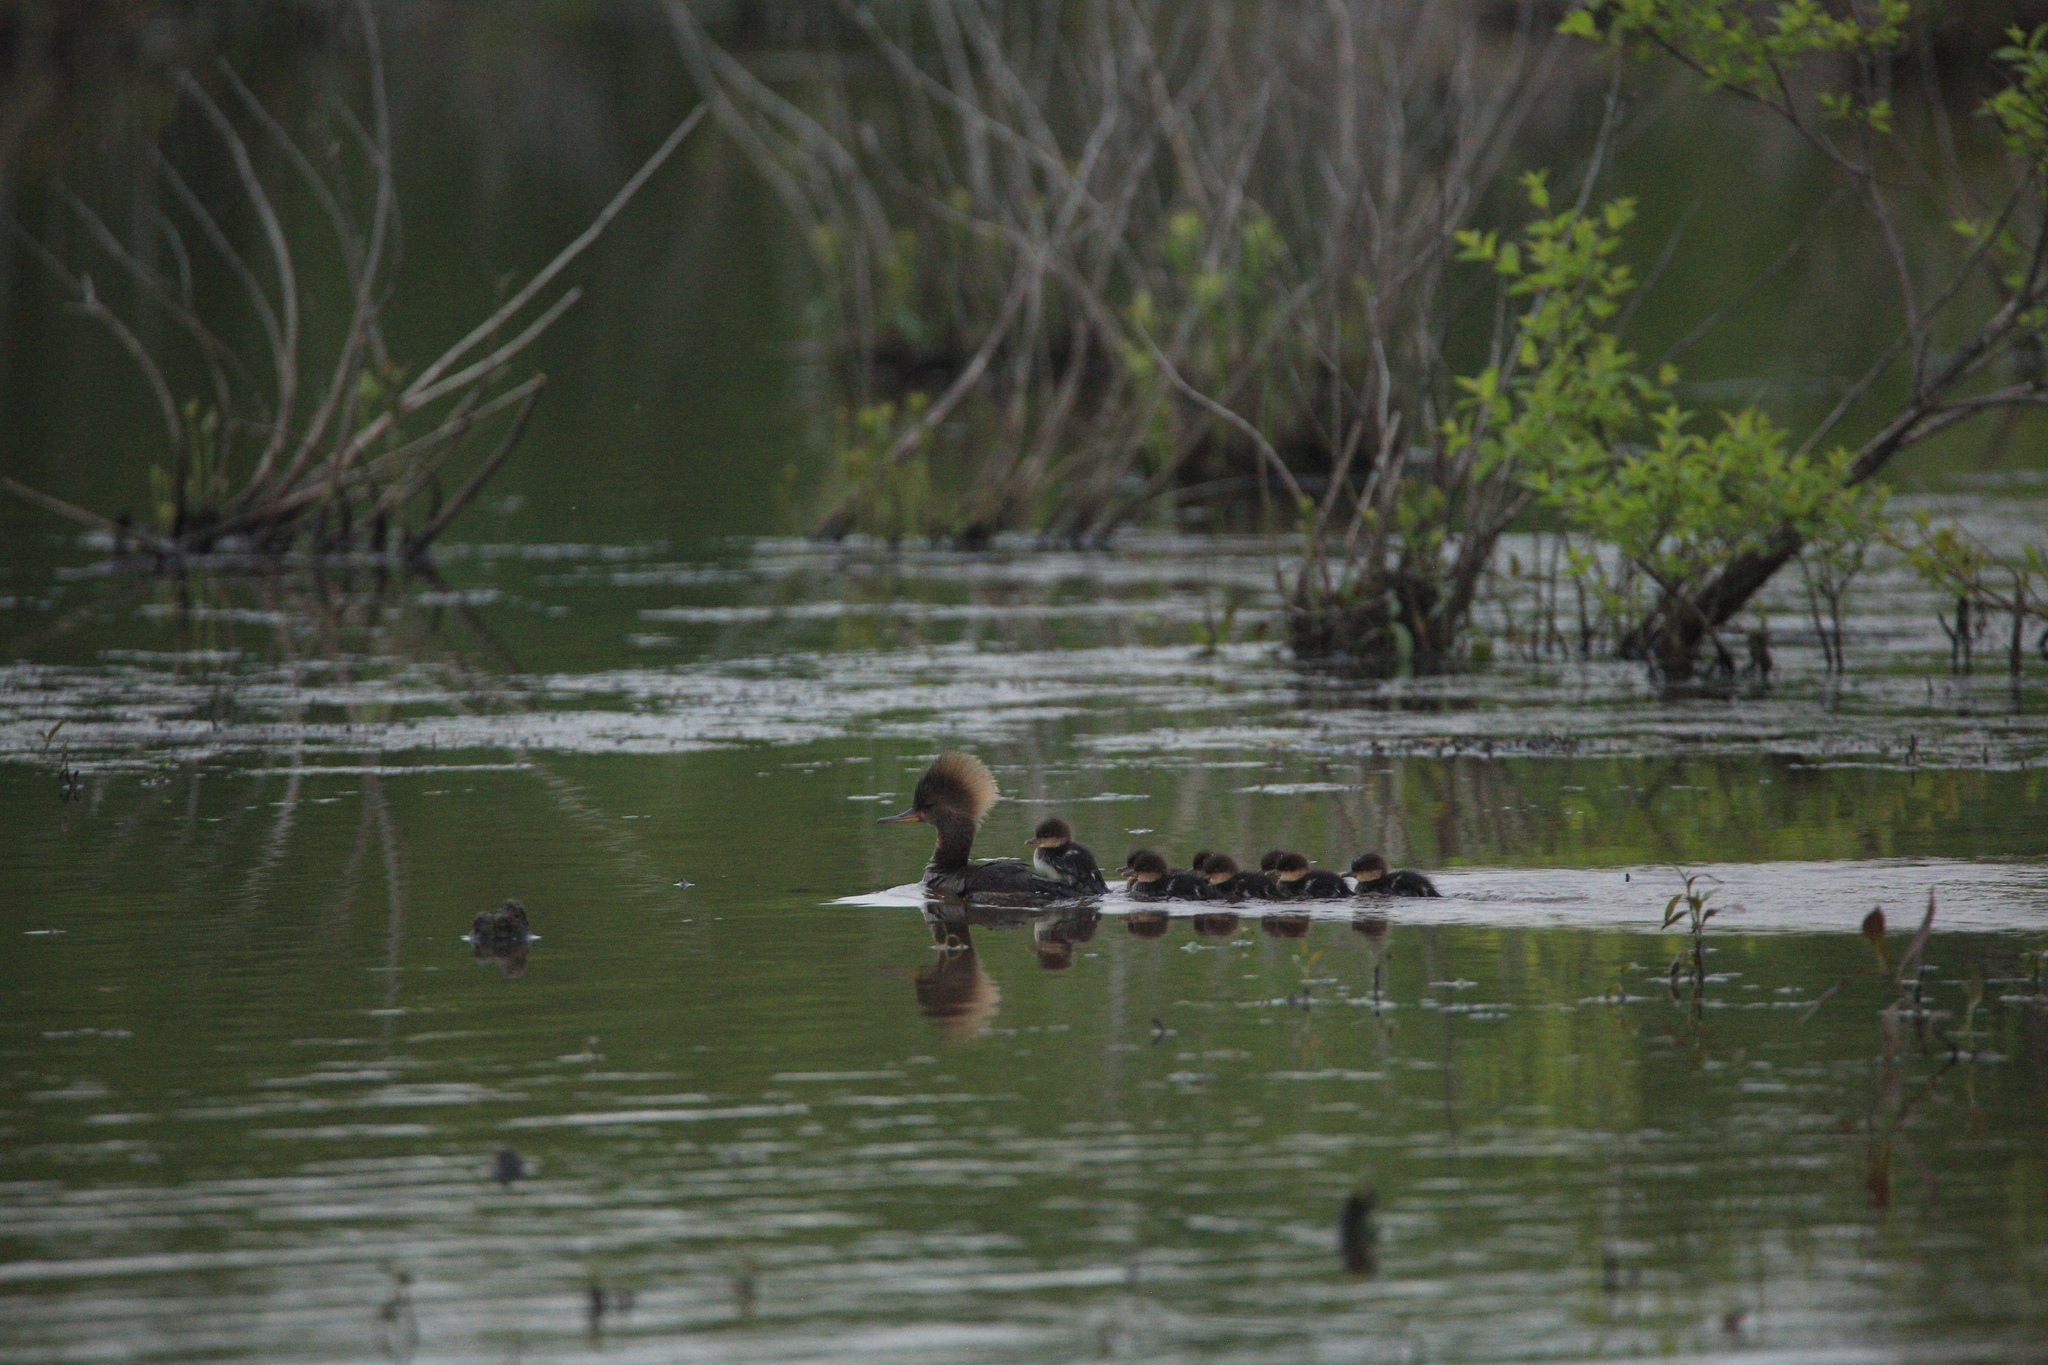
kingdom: Animalia
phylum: Chordata
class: Aves
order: Anseriformes
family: Anatidae
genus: Lophodytes
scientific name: Lophodytes cucullatus
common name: Hooded merganser
